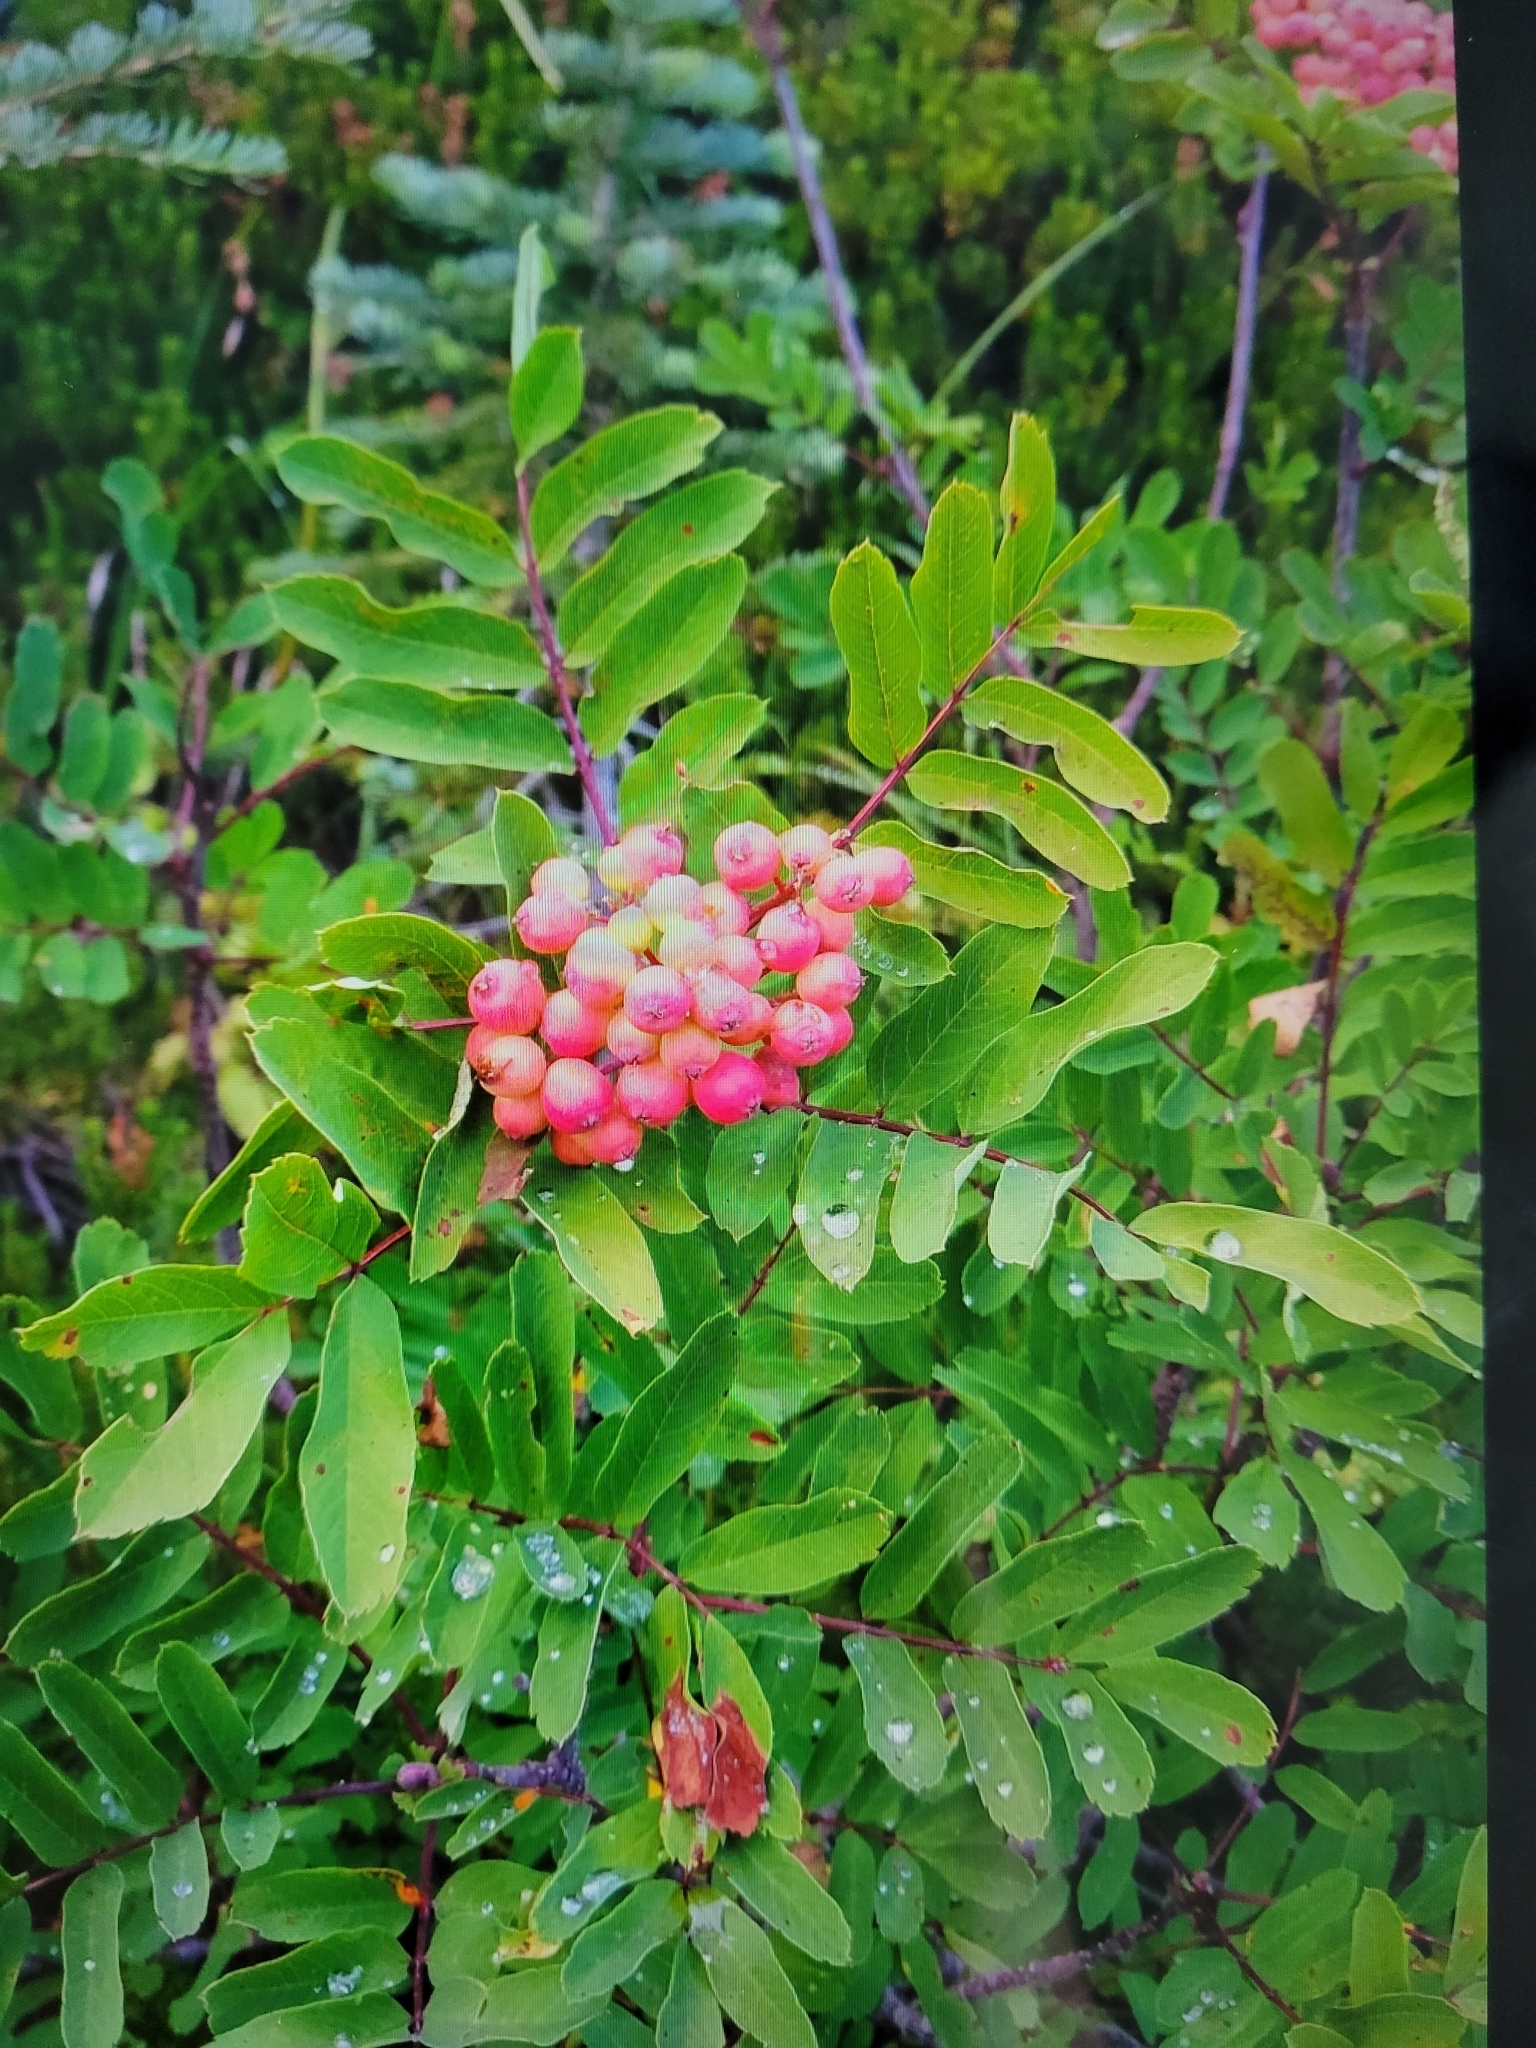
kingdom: Plantae
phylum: Tracheophyta
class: Magnoliopsida
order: Rosales
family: Rosaceae
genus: Sorbus
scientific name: Sorbus sitchensis
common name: Sitka mountain-ash
